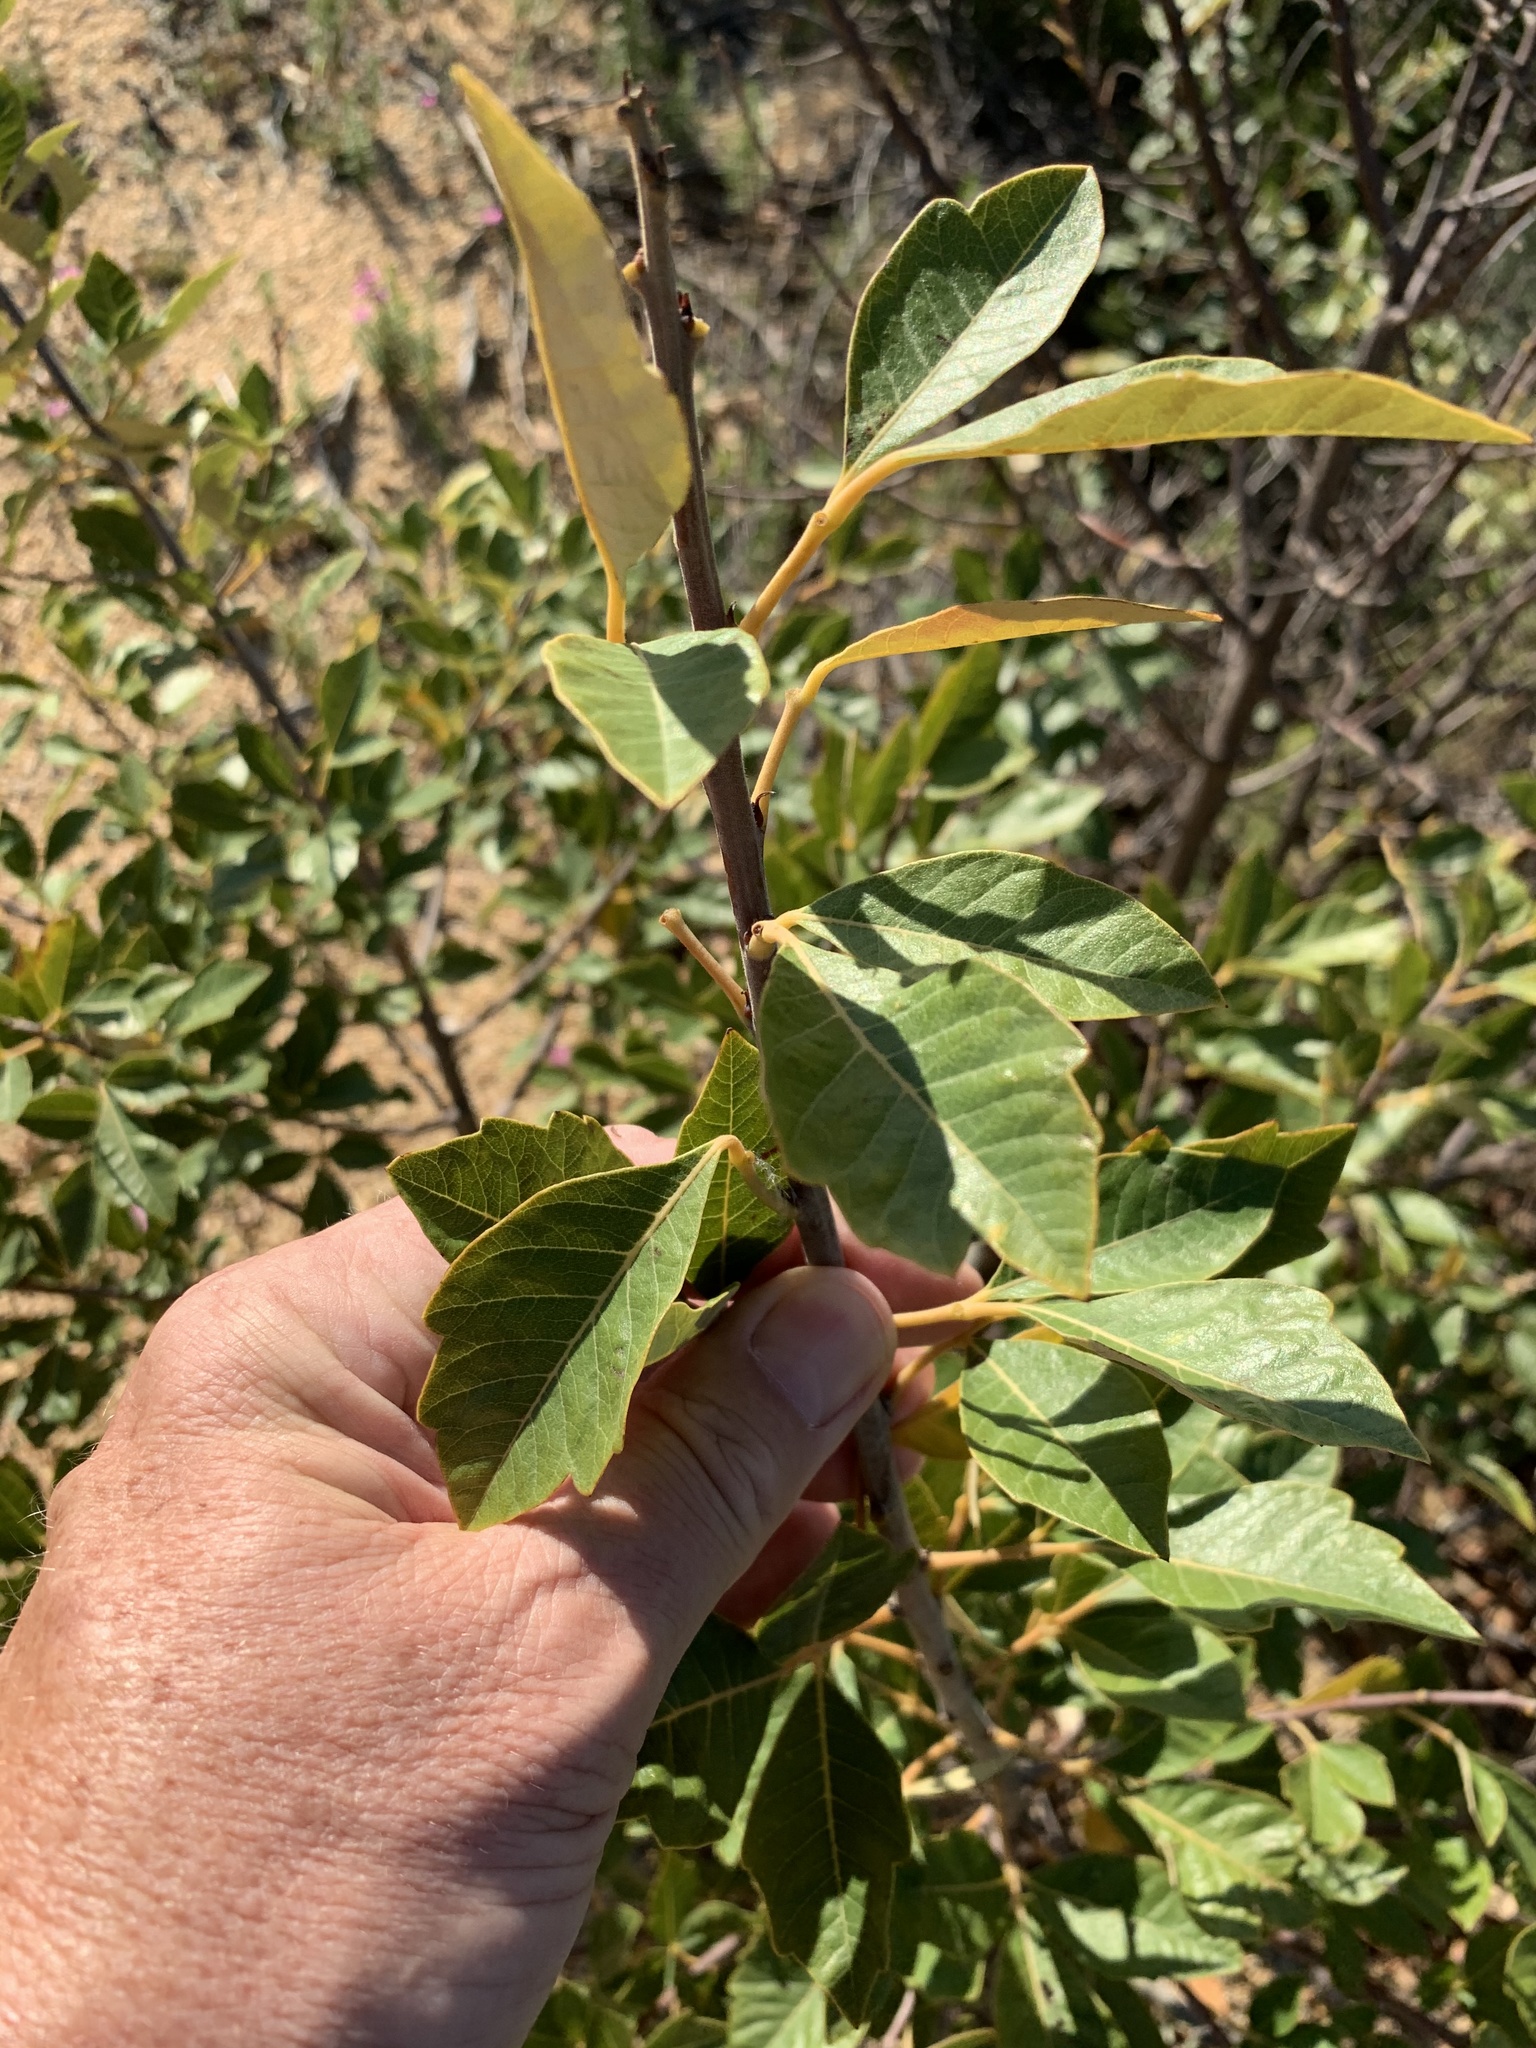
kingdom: Plantae
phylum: Tracheophyta
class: Magnoliopsida
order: Sapindales
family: Anacardiaceae
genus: Searsia
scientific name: Searsia tomentosa
